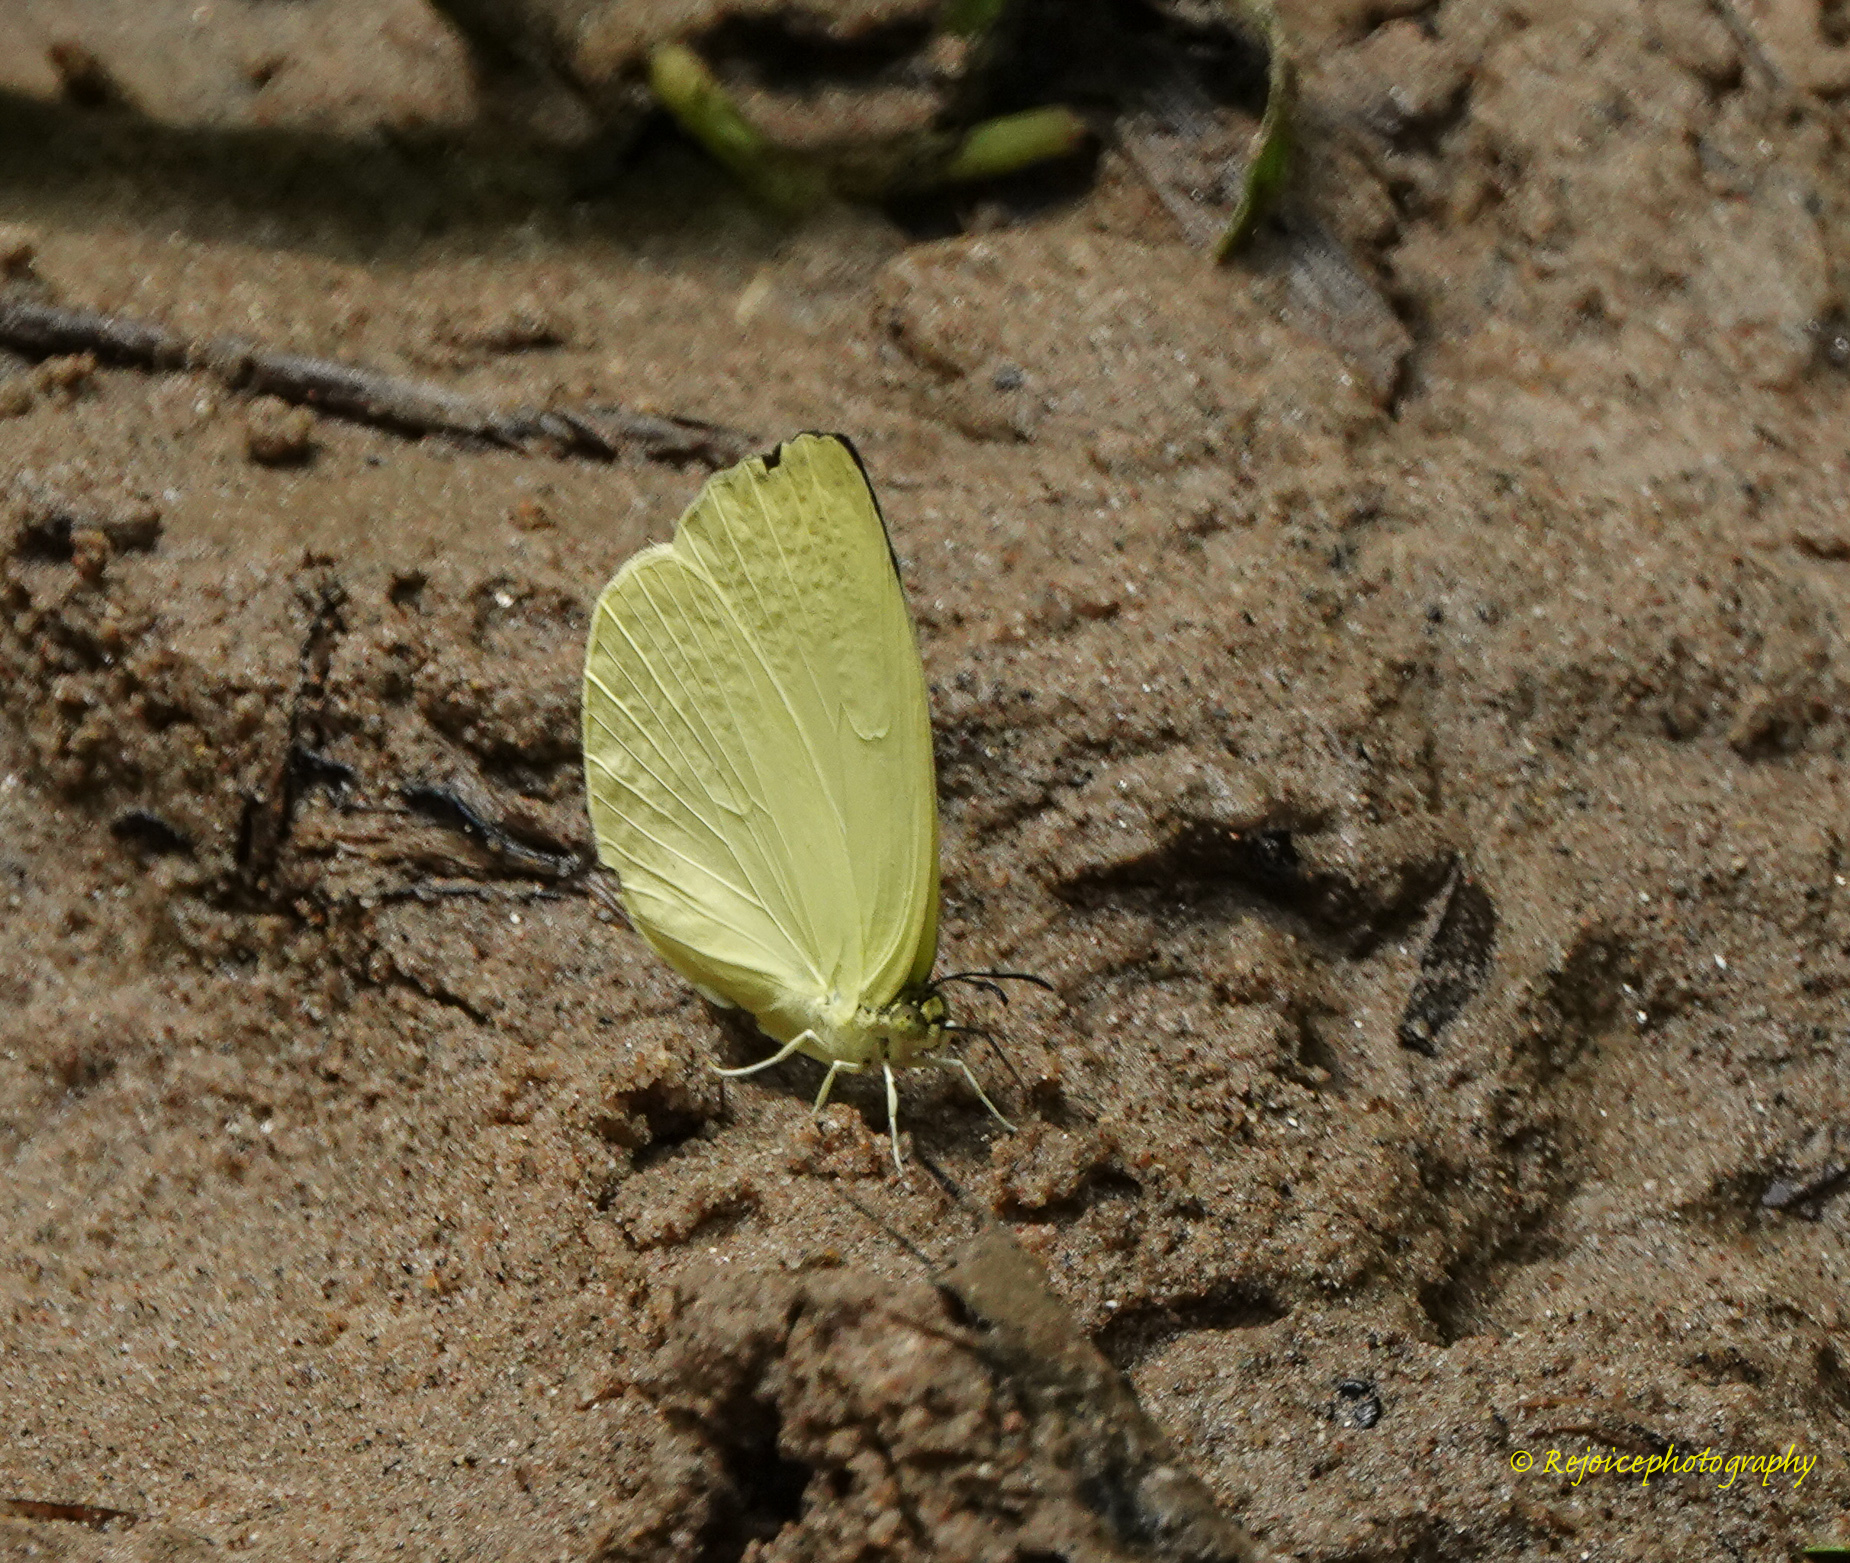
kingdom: Animalia
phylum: Arthropoda
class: Insecta
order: Lepidoptera
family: Pieridae
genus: Gandaca
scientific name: Gandaca harina
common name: Tree yellow
